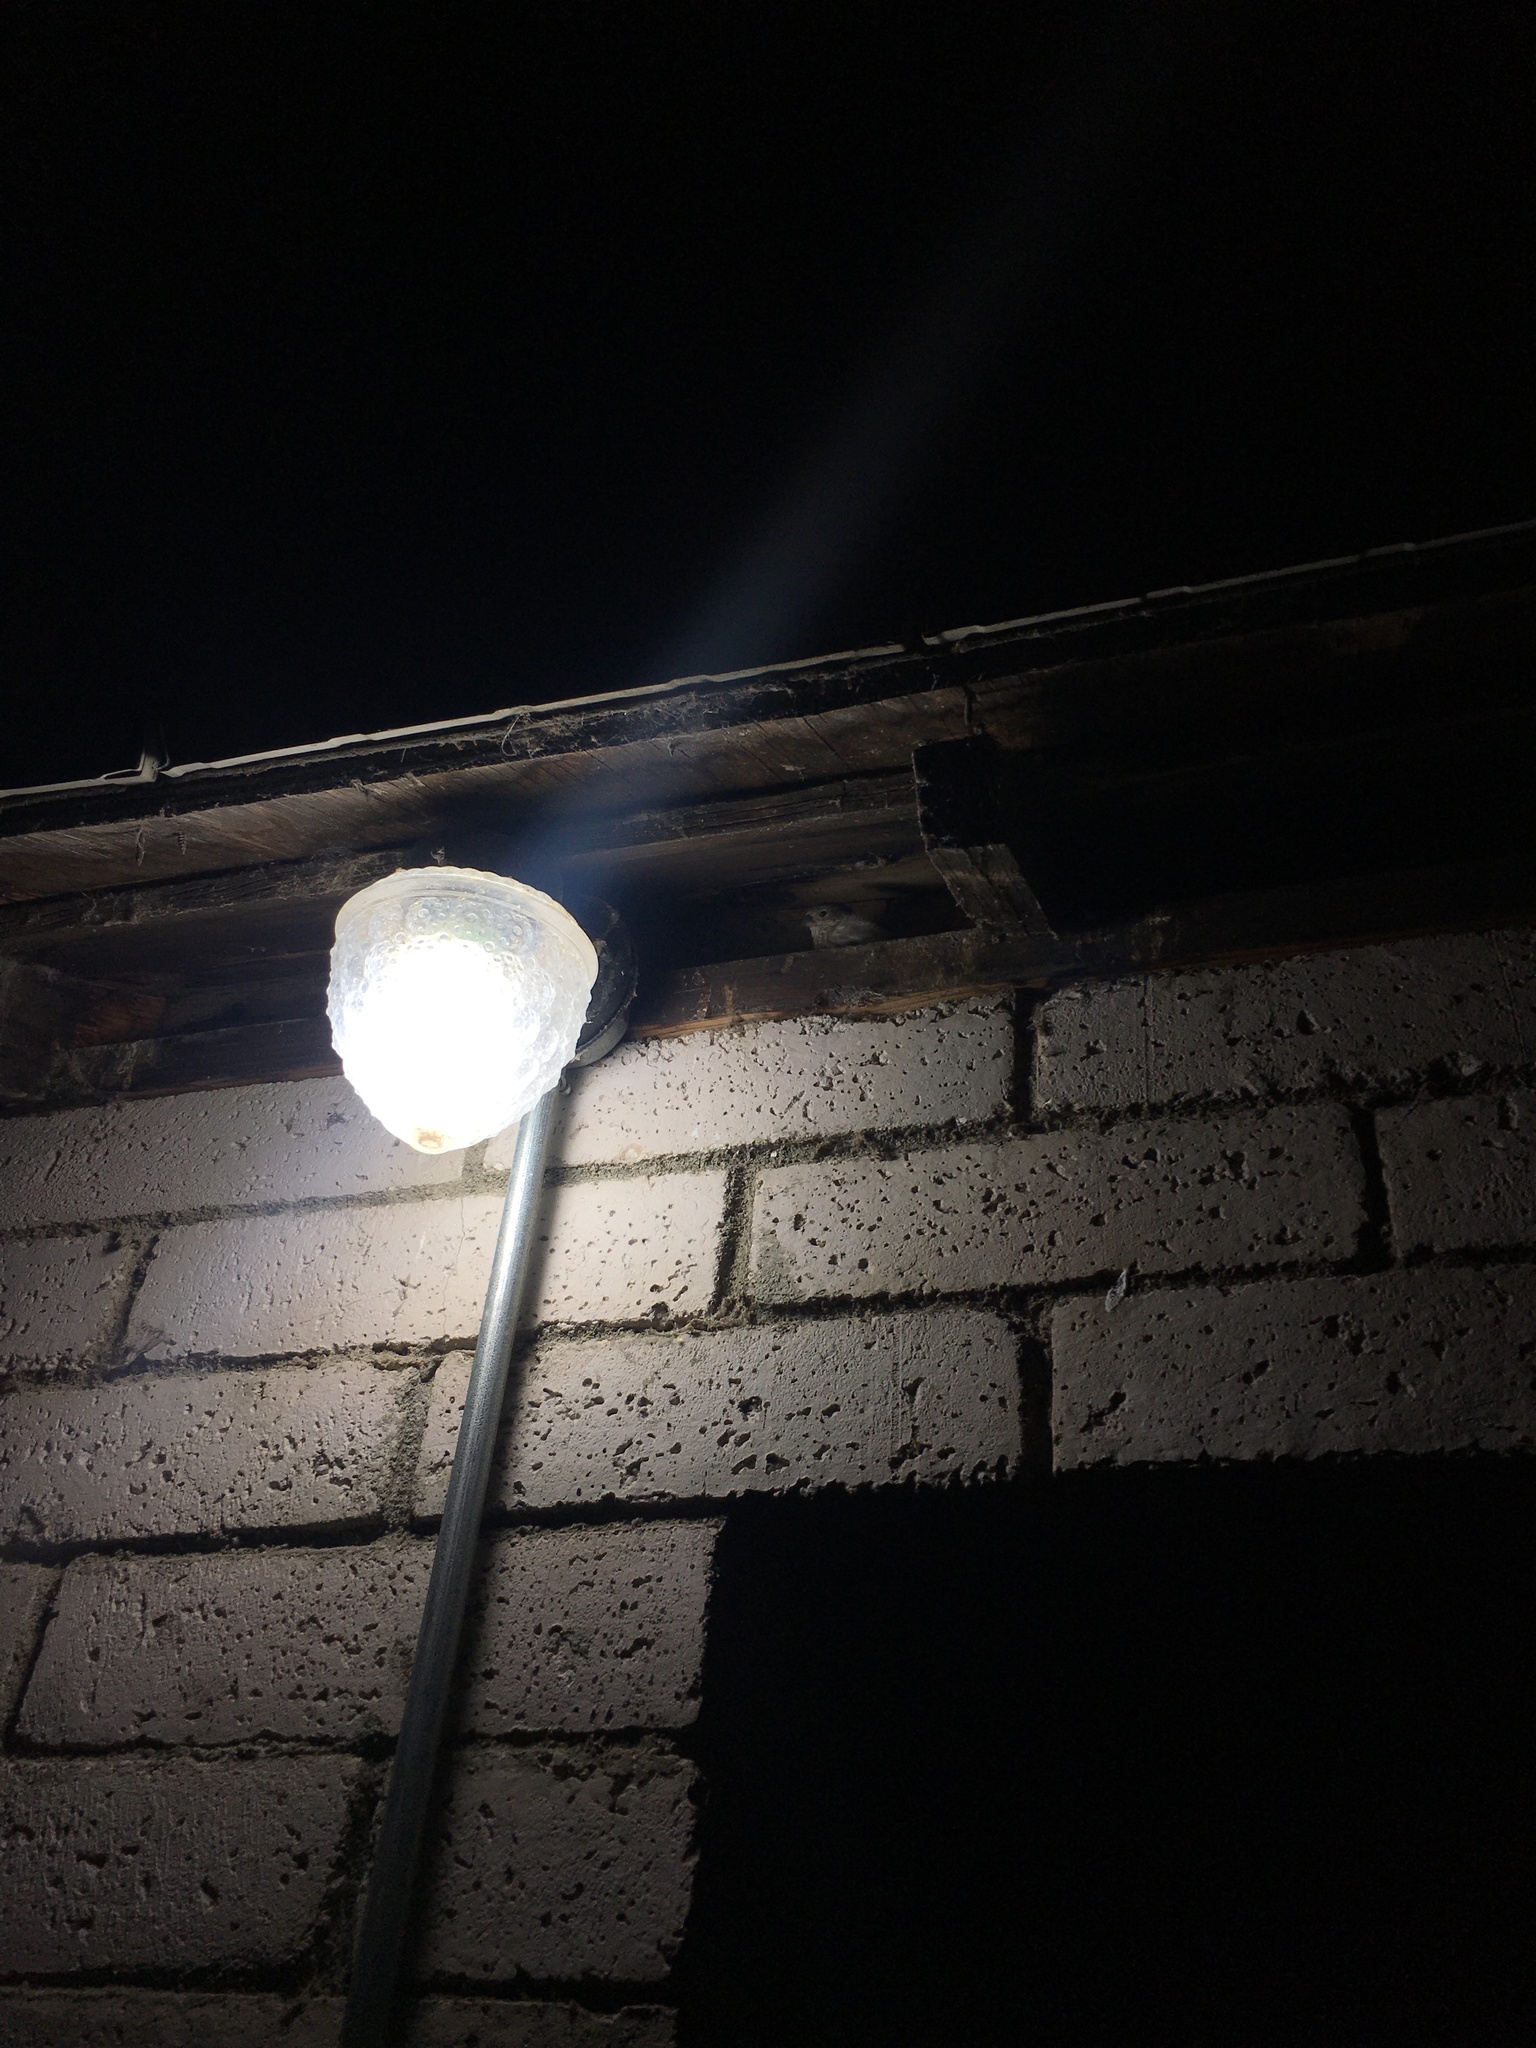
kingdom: Animalia
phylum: Chordata
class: Aves
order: Passeriformes
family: Fringillidae
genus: Haemorhous
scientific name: Haemorhous mexicanus
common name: House finch
